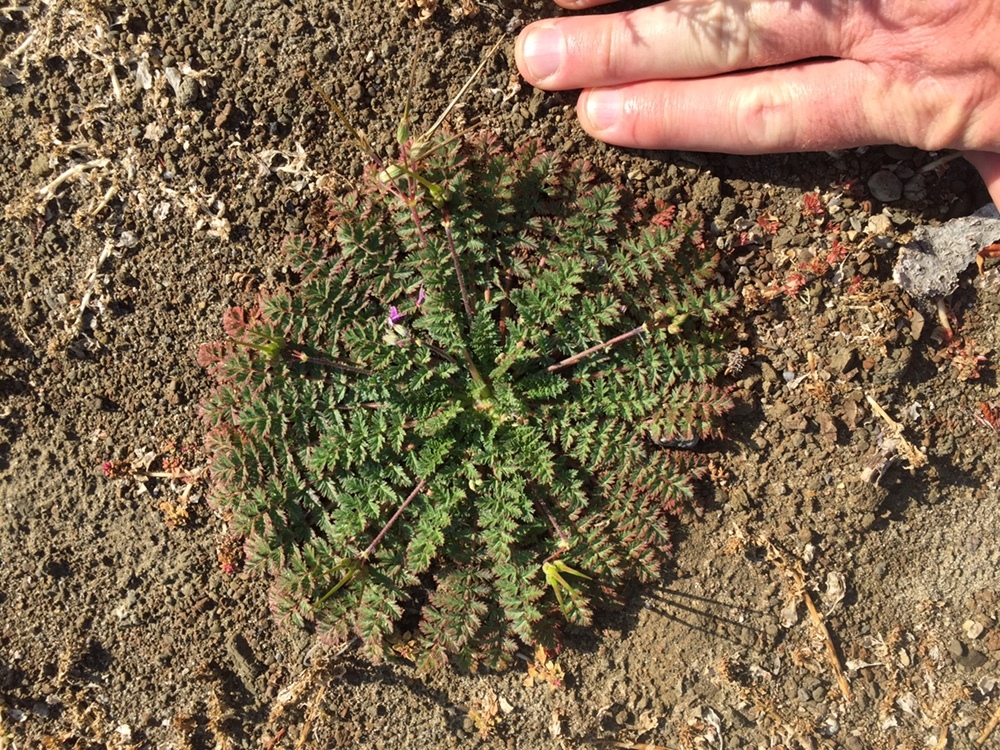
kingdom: Plantae
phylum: Tracheophyta
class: Magnoliopsida
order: Geraniales
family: Geraniaceae
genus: Erodium
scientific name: Erodium cicutarium
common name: Common stork's-bill
